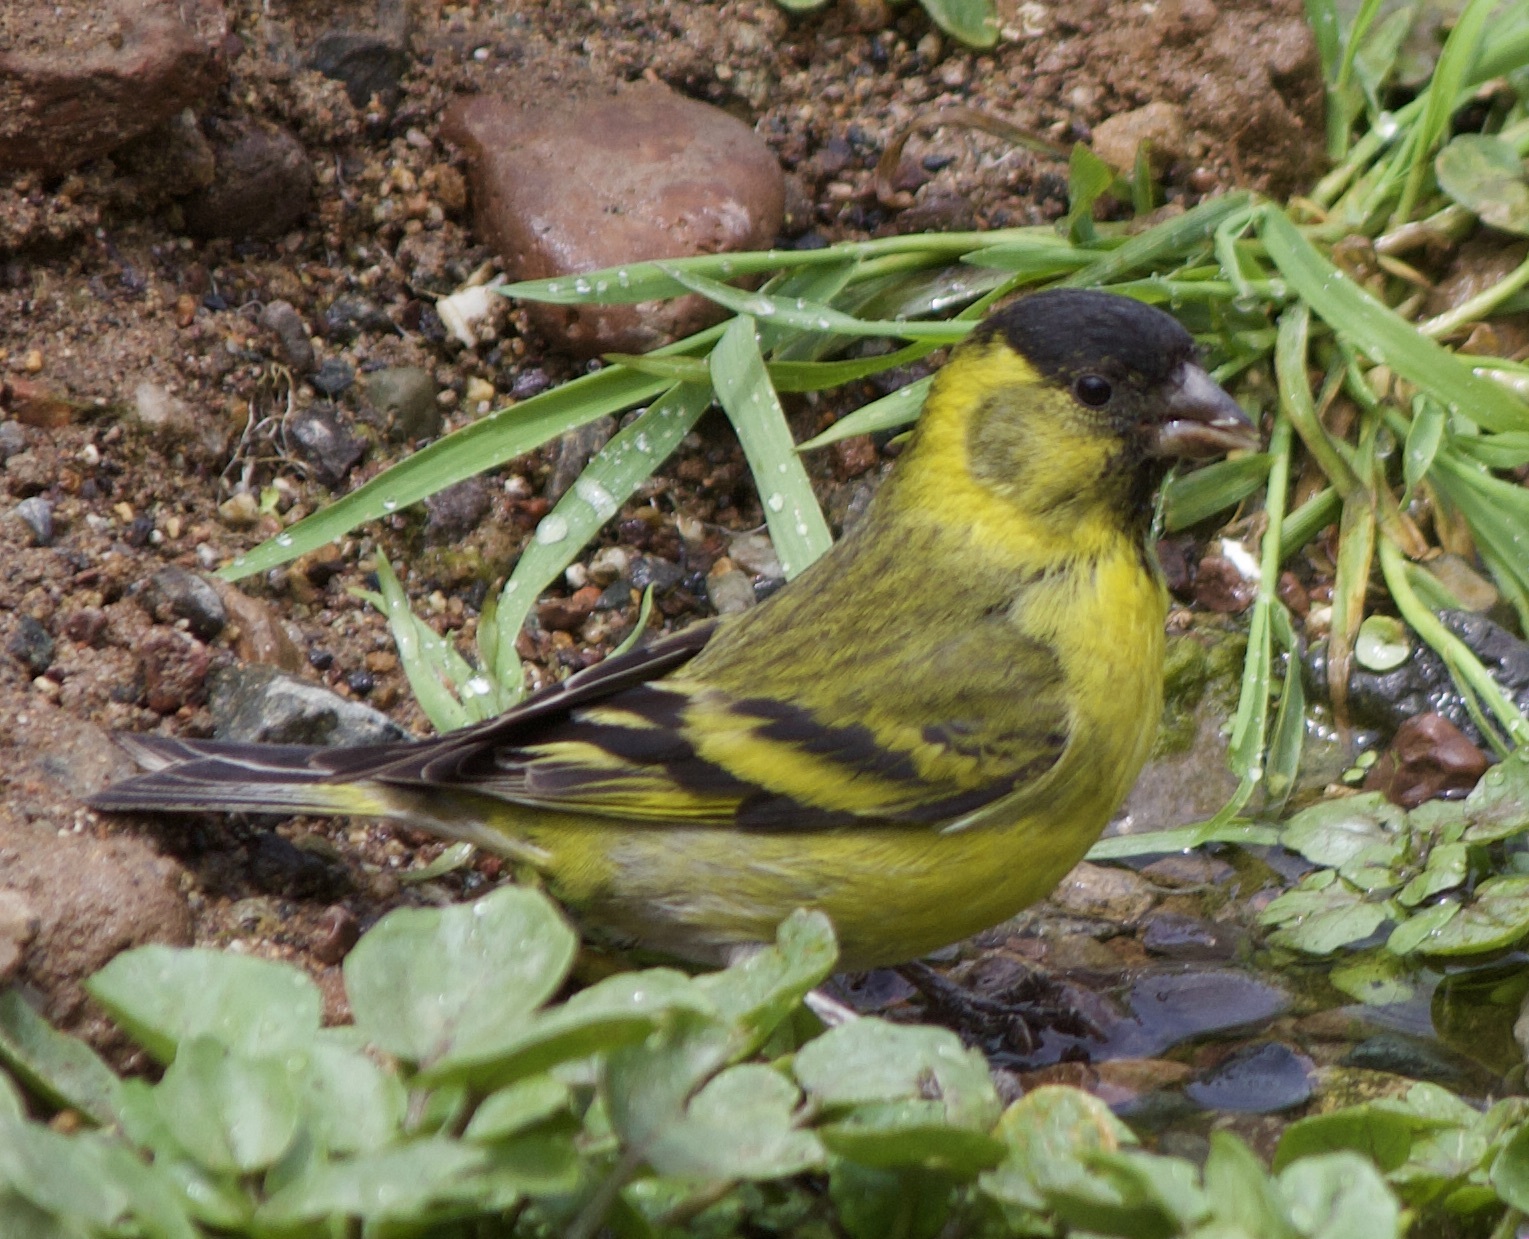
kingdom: Animalia
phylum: Chordata
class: Aves
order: Passeriformes
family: Fringillidae
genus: Spinus
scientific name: Spinus barbatus
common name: Black-chinned siskin
